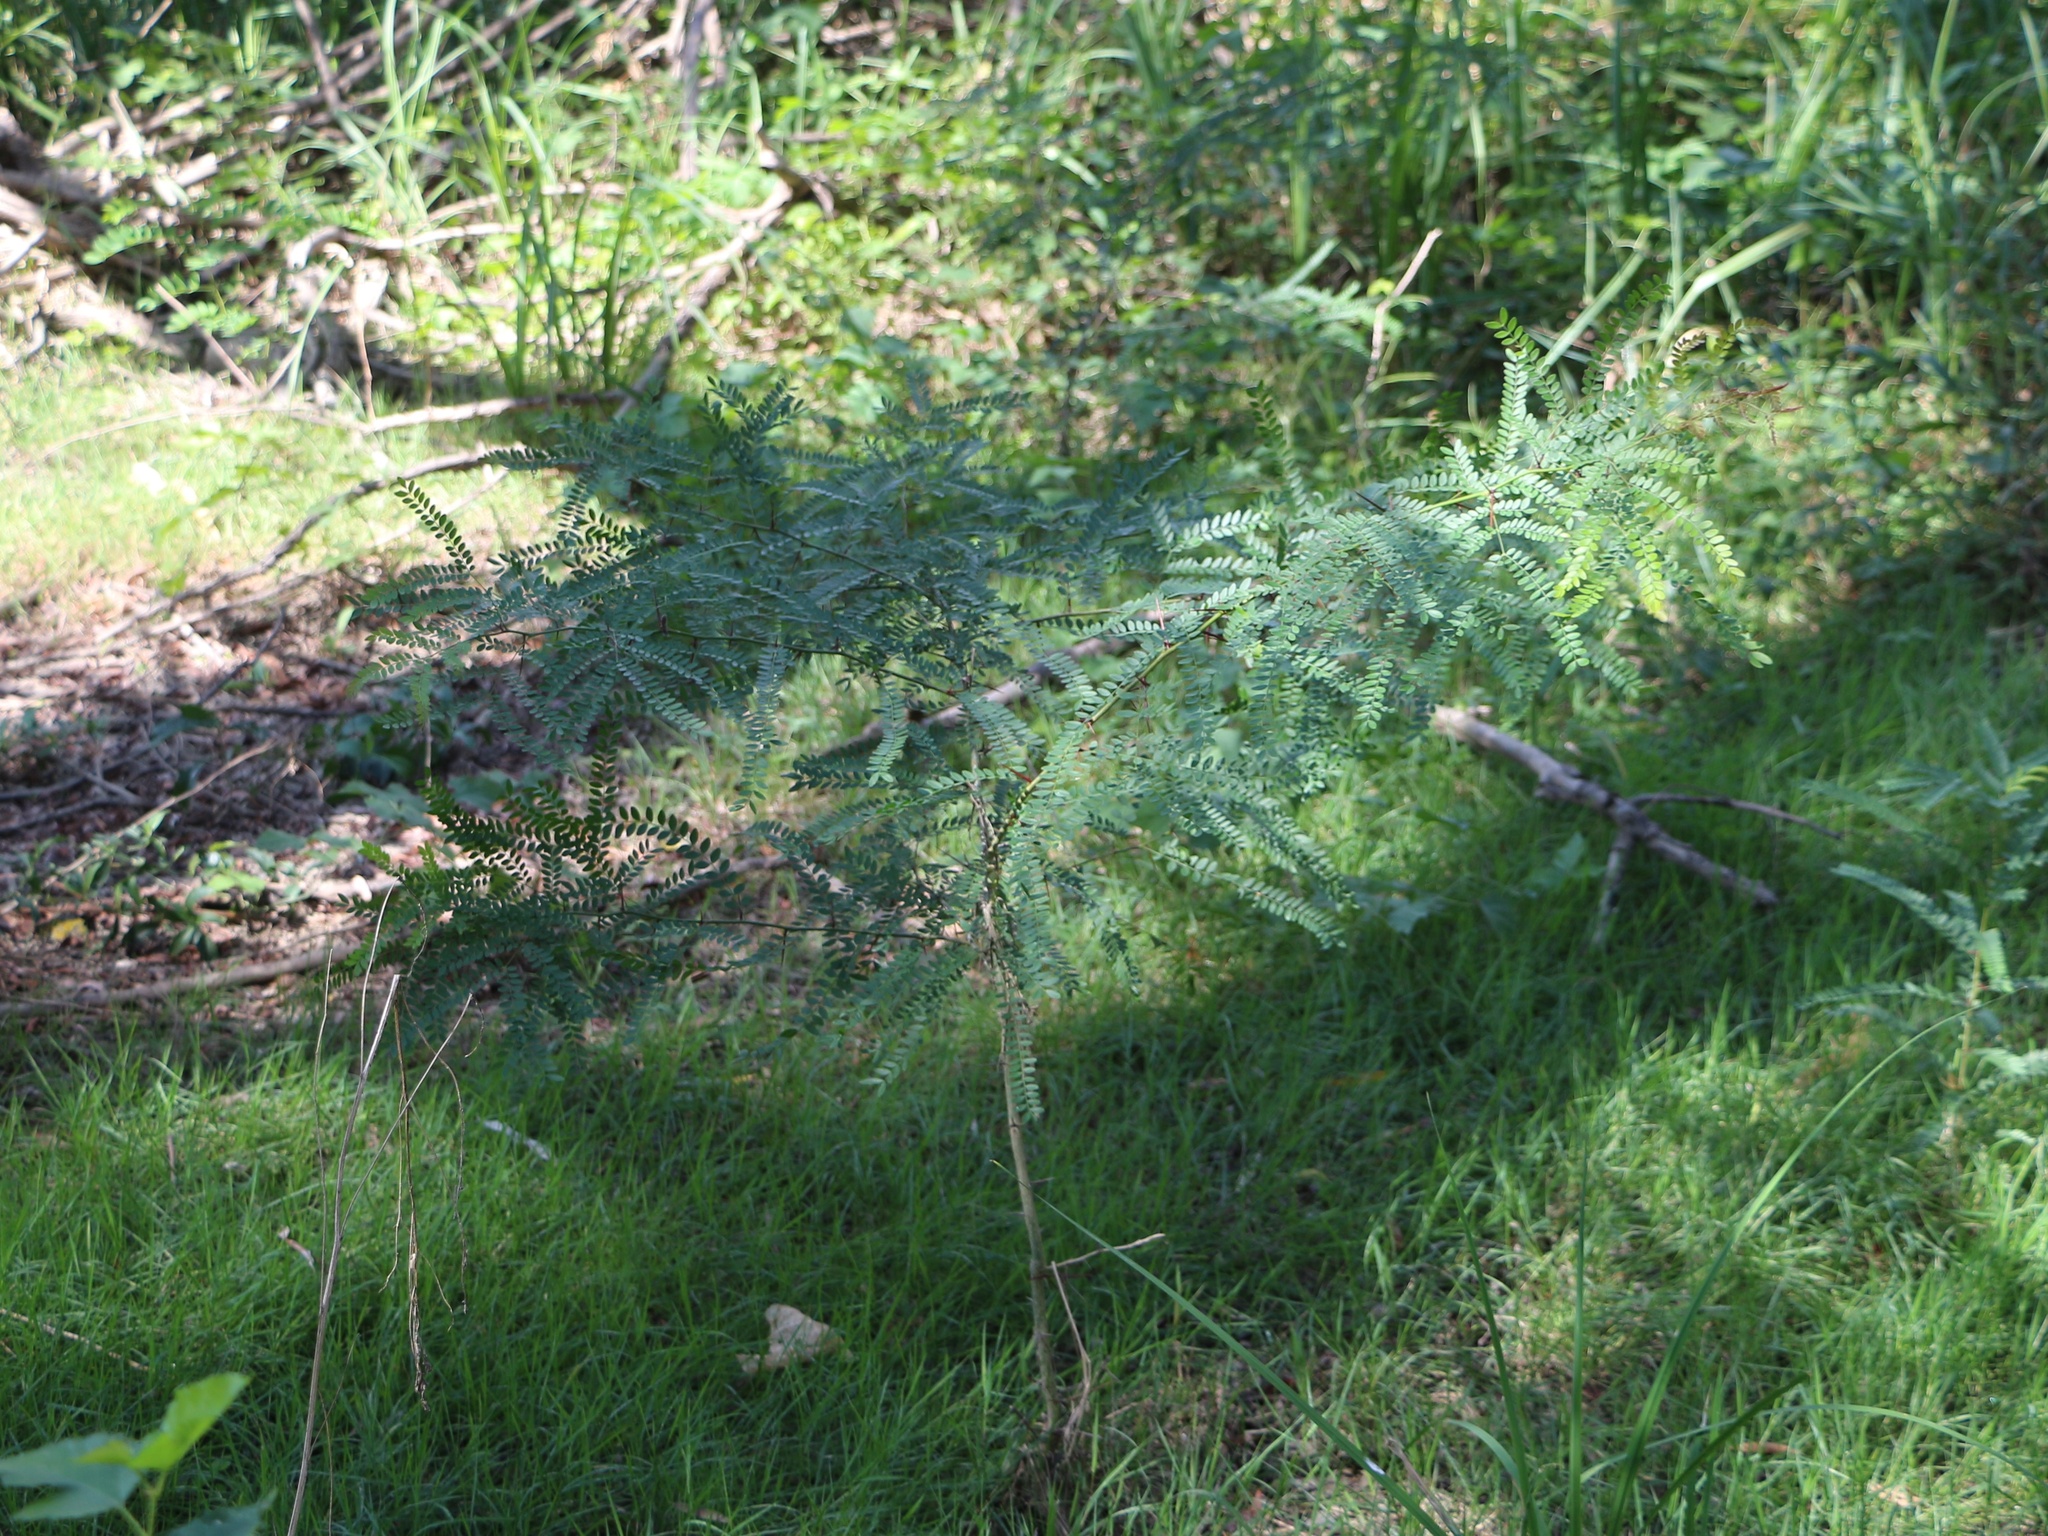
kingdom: Plantae
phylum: Tracheophyta
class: Magnoliopsida
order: Fabales
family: Fabaceae
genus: Gleditsia
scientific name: Gleditsia triacanthos
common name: Common honeylocust
